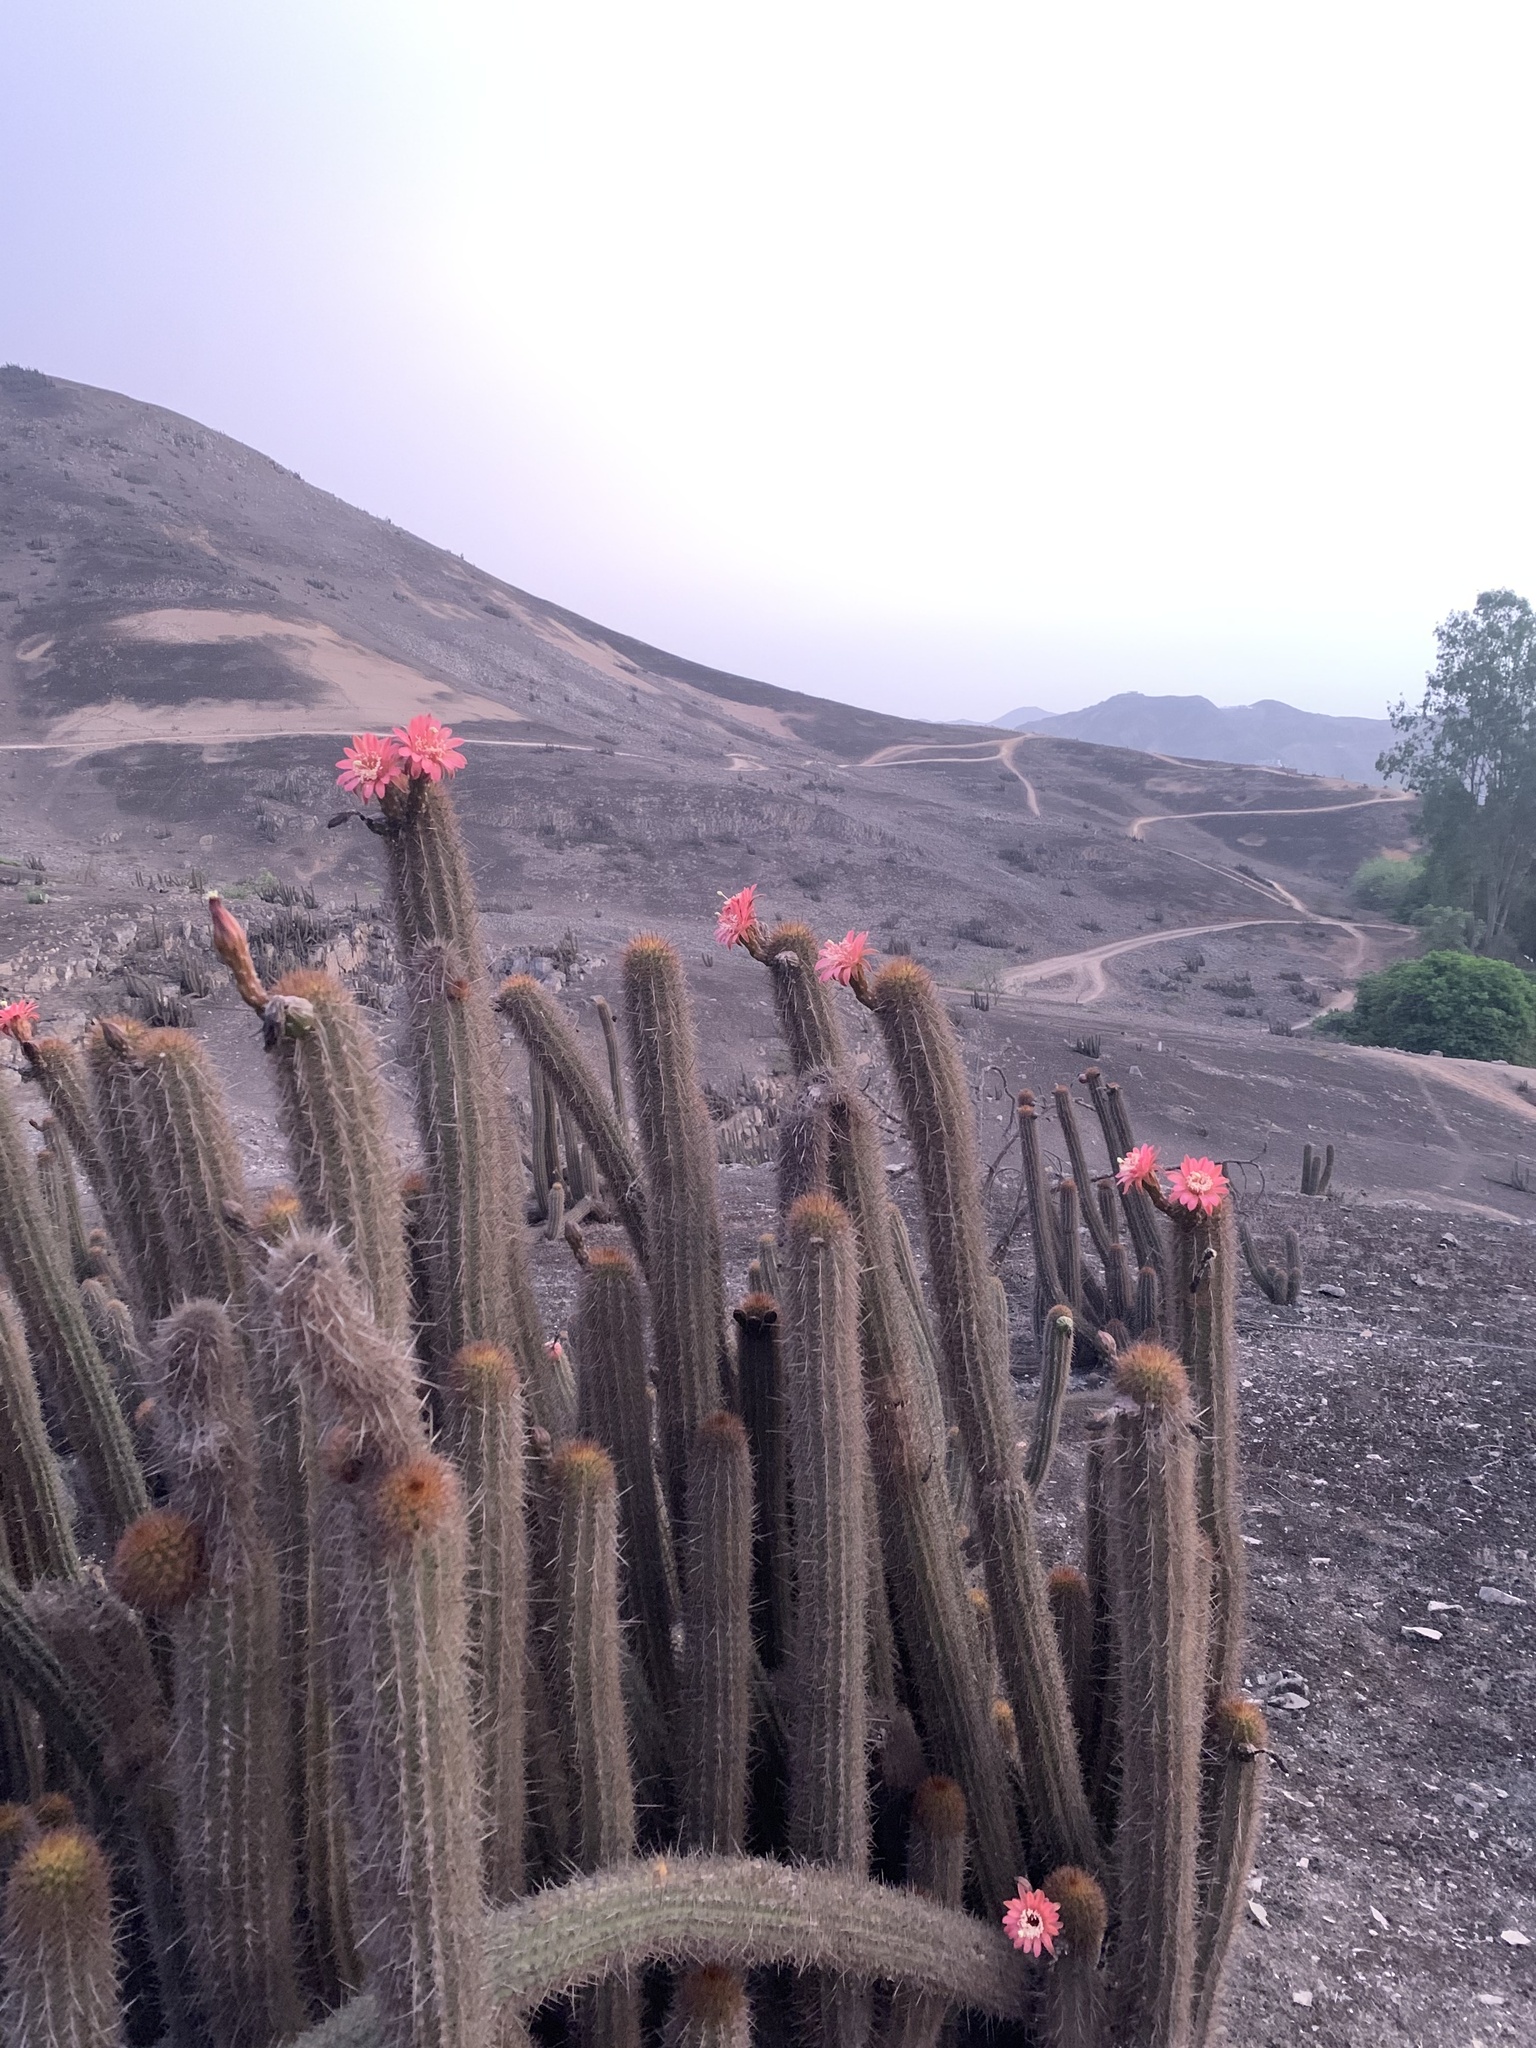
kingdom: Plantae
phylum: Tracheophyta
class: Magnoliopsida
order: Caryophyllales
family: Cactaceae
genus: Haageocereus
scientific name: Haageocereus acranthus
